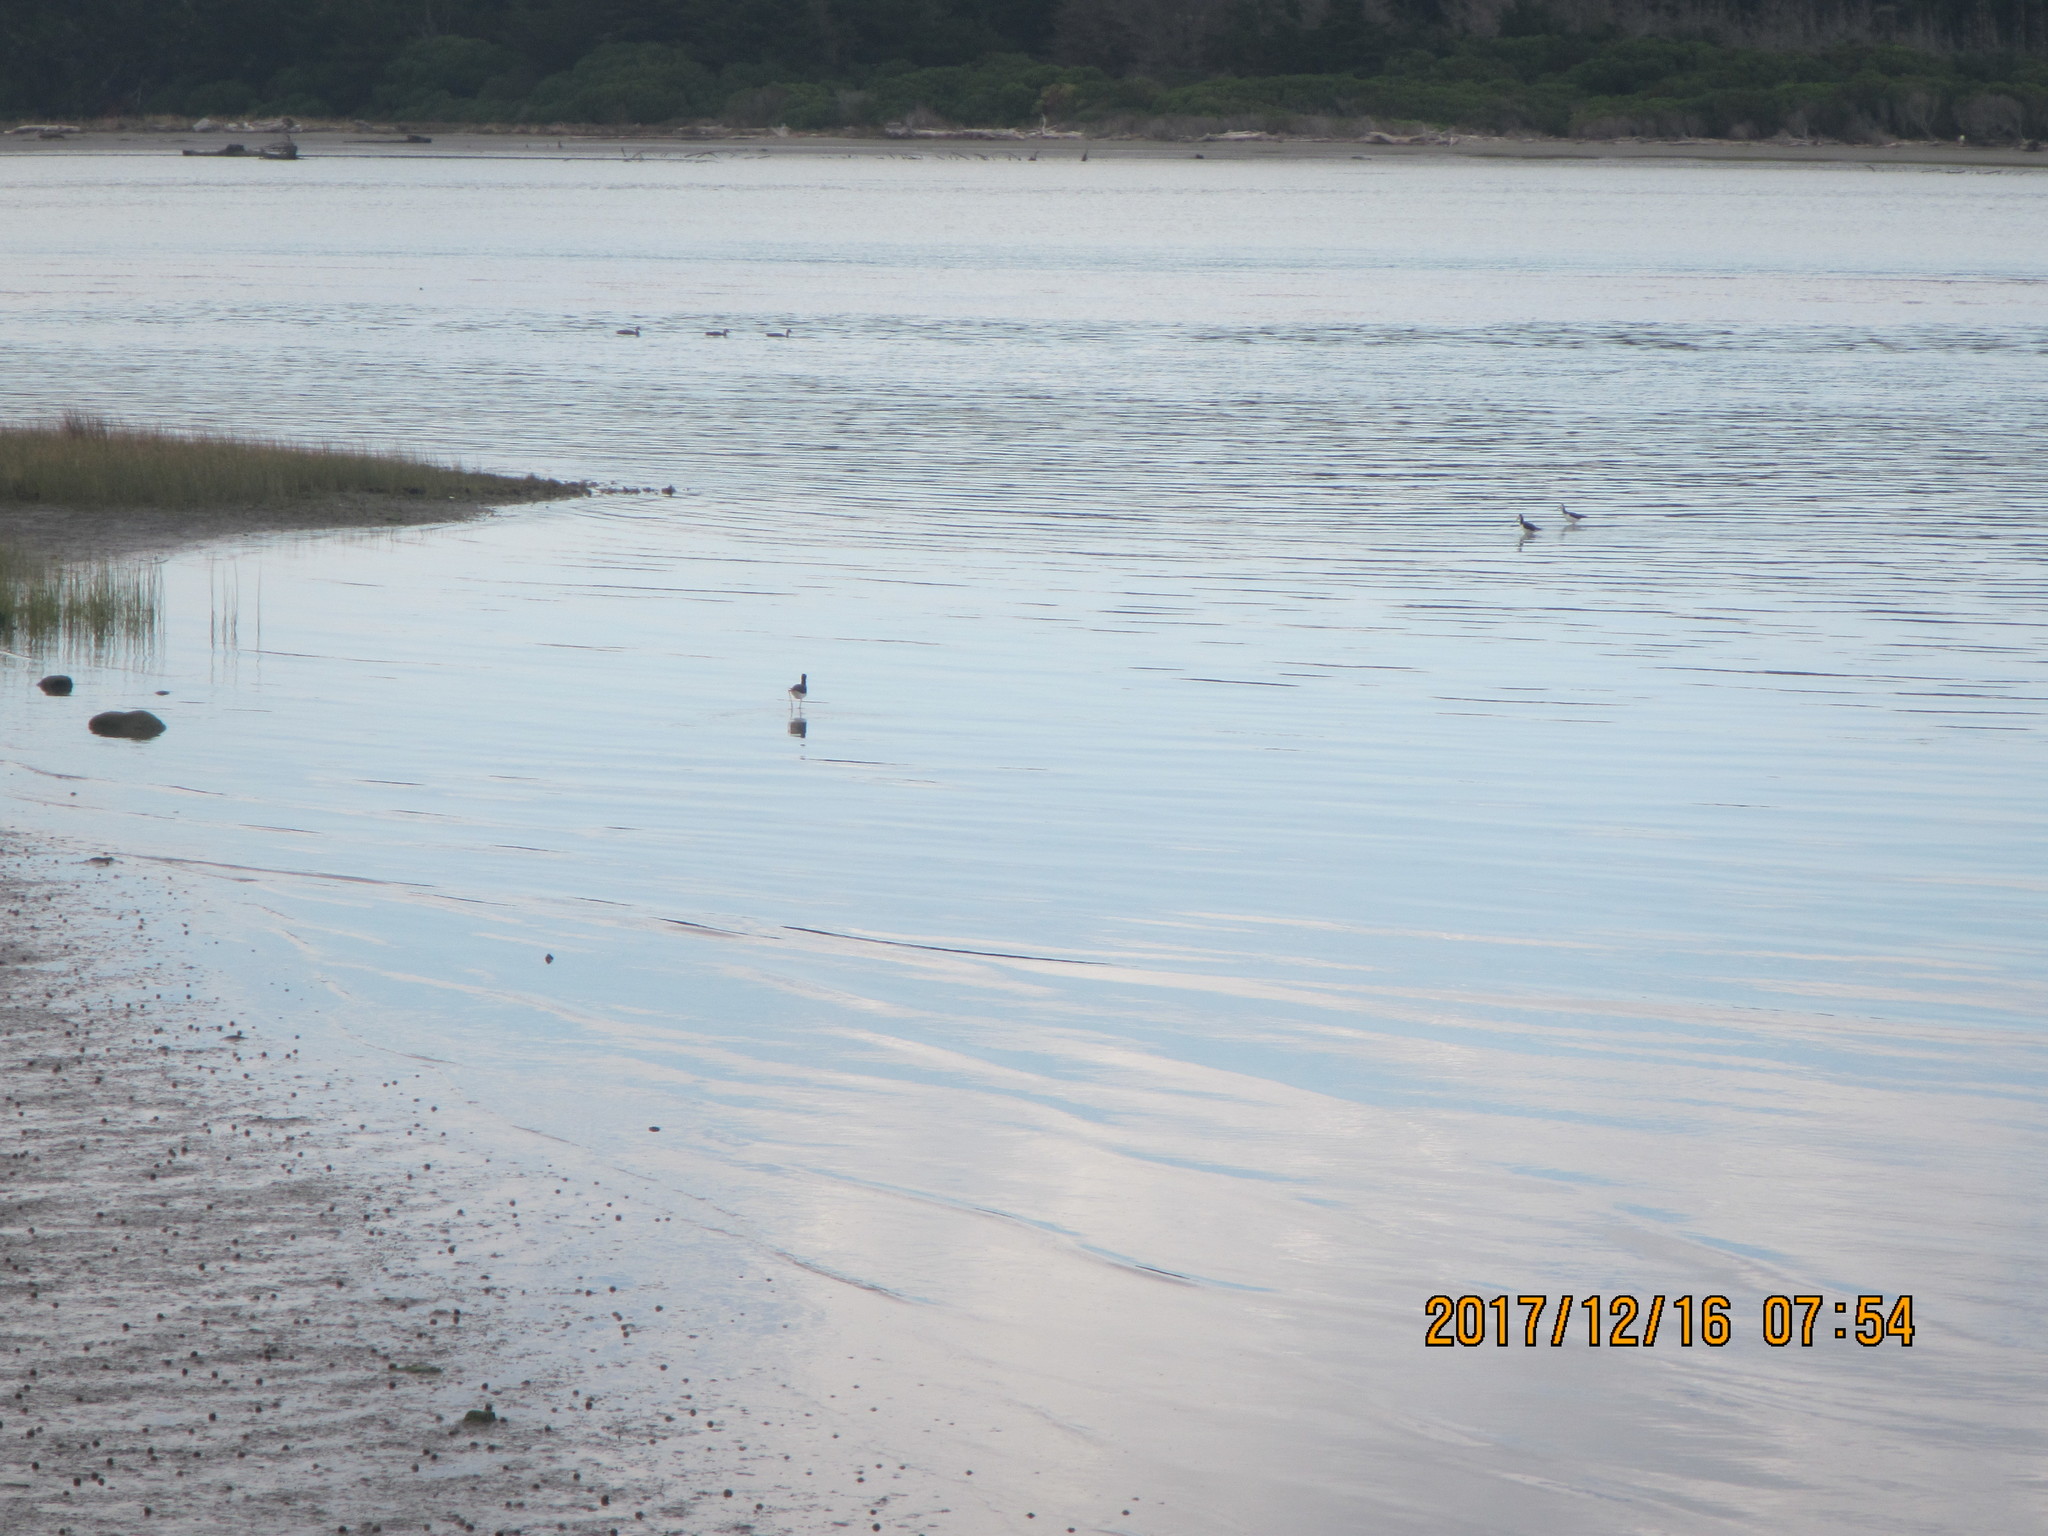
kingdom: Animalia
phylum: Chordata
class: Aves
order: Charadriiformes
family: Recurvirostridae
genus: Himantopus
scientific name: Himantopus leucocephalus
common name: White-headed stilt
